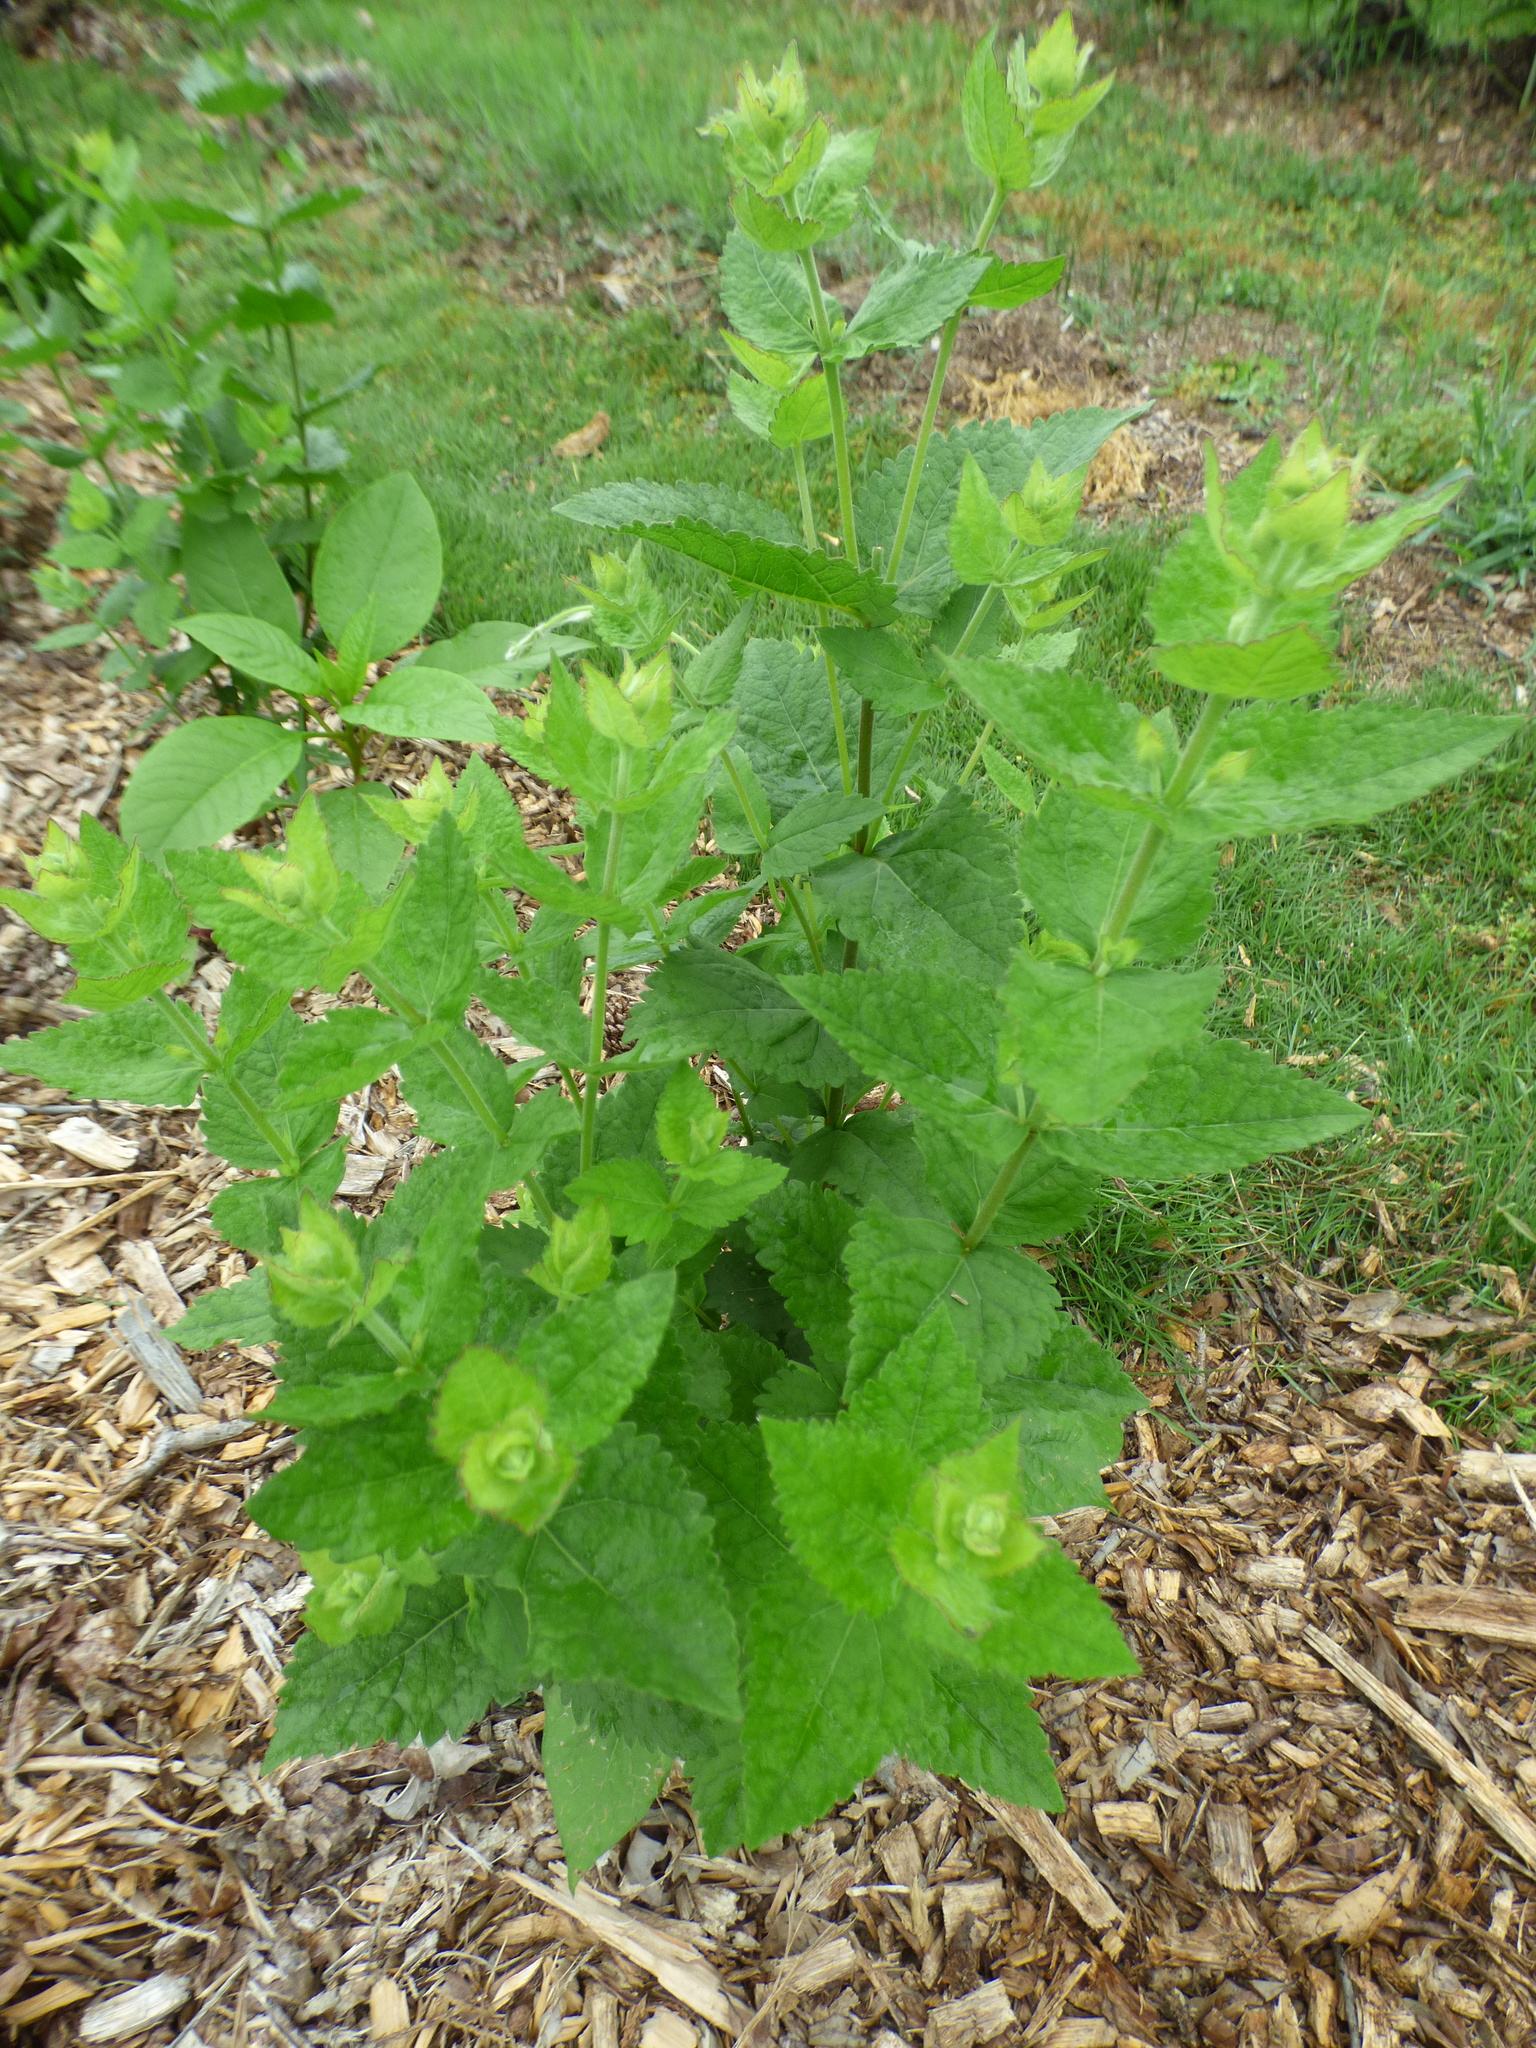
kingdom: Plantae
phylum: Tracheophyta
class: Magnoliopsida
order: Asterales
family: Asteraceae
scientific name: Asteraceae
